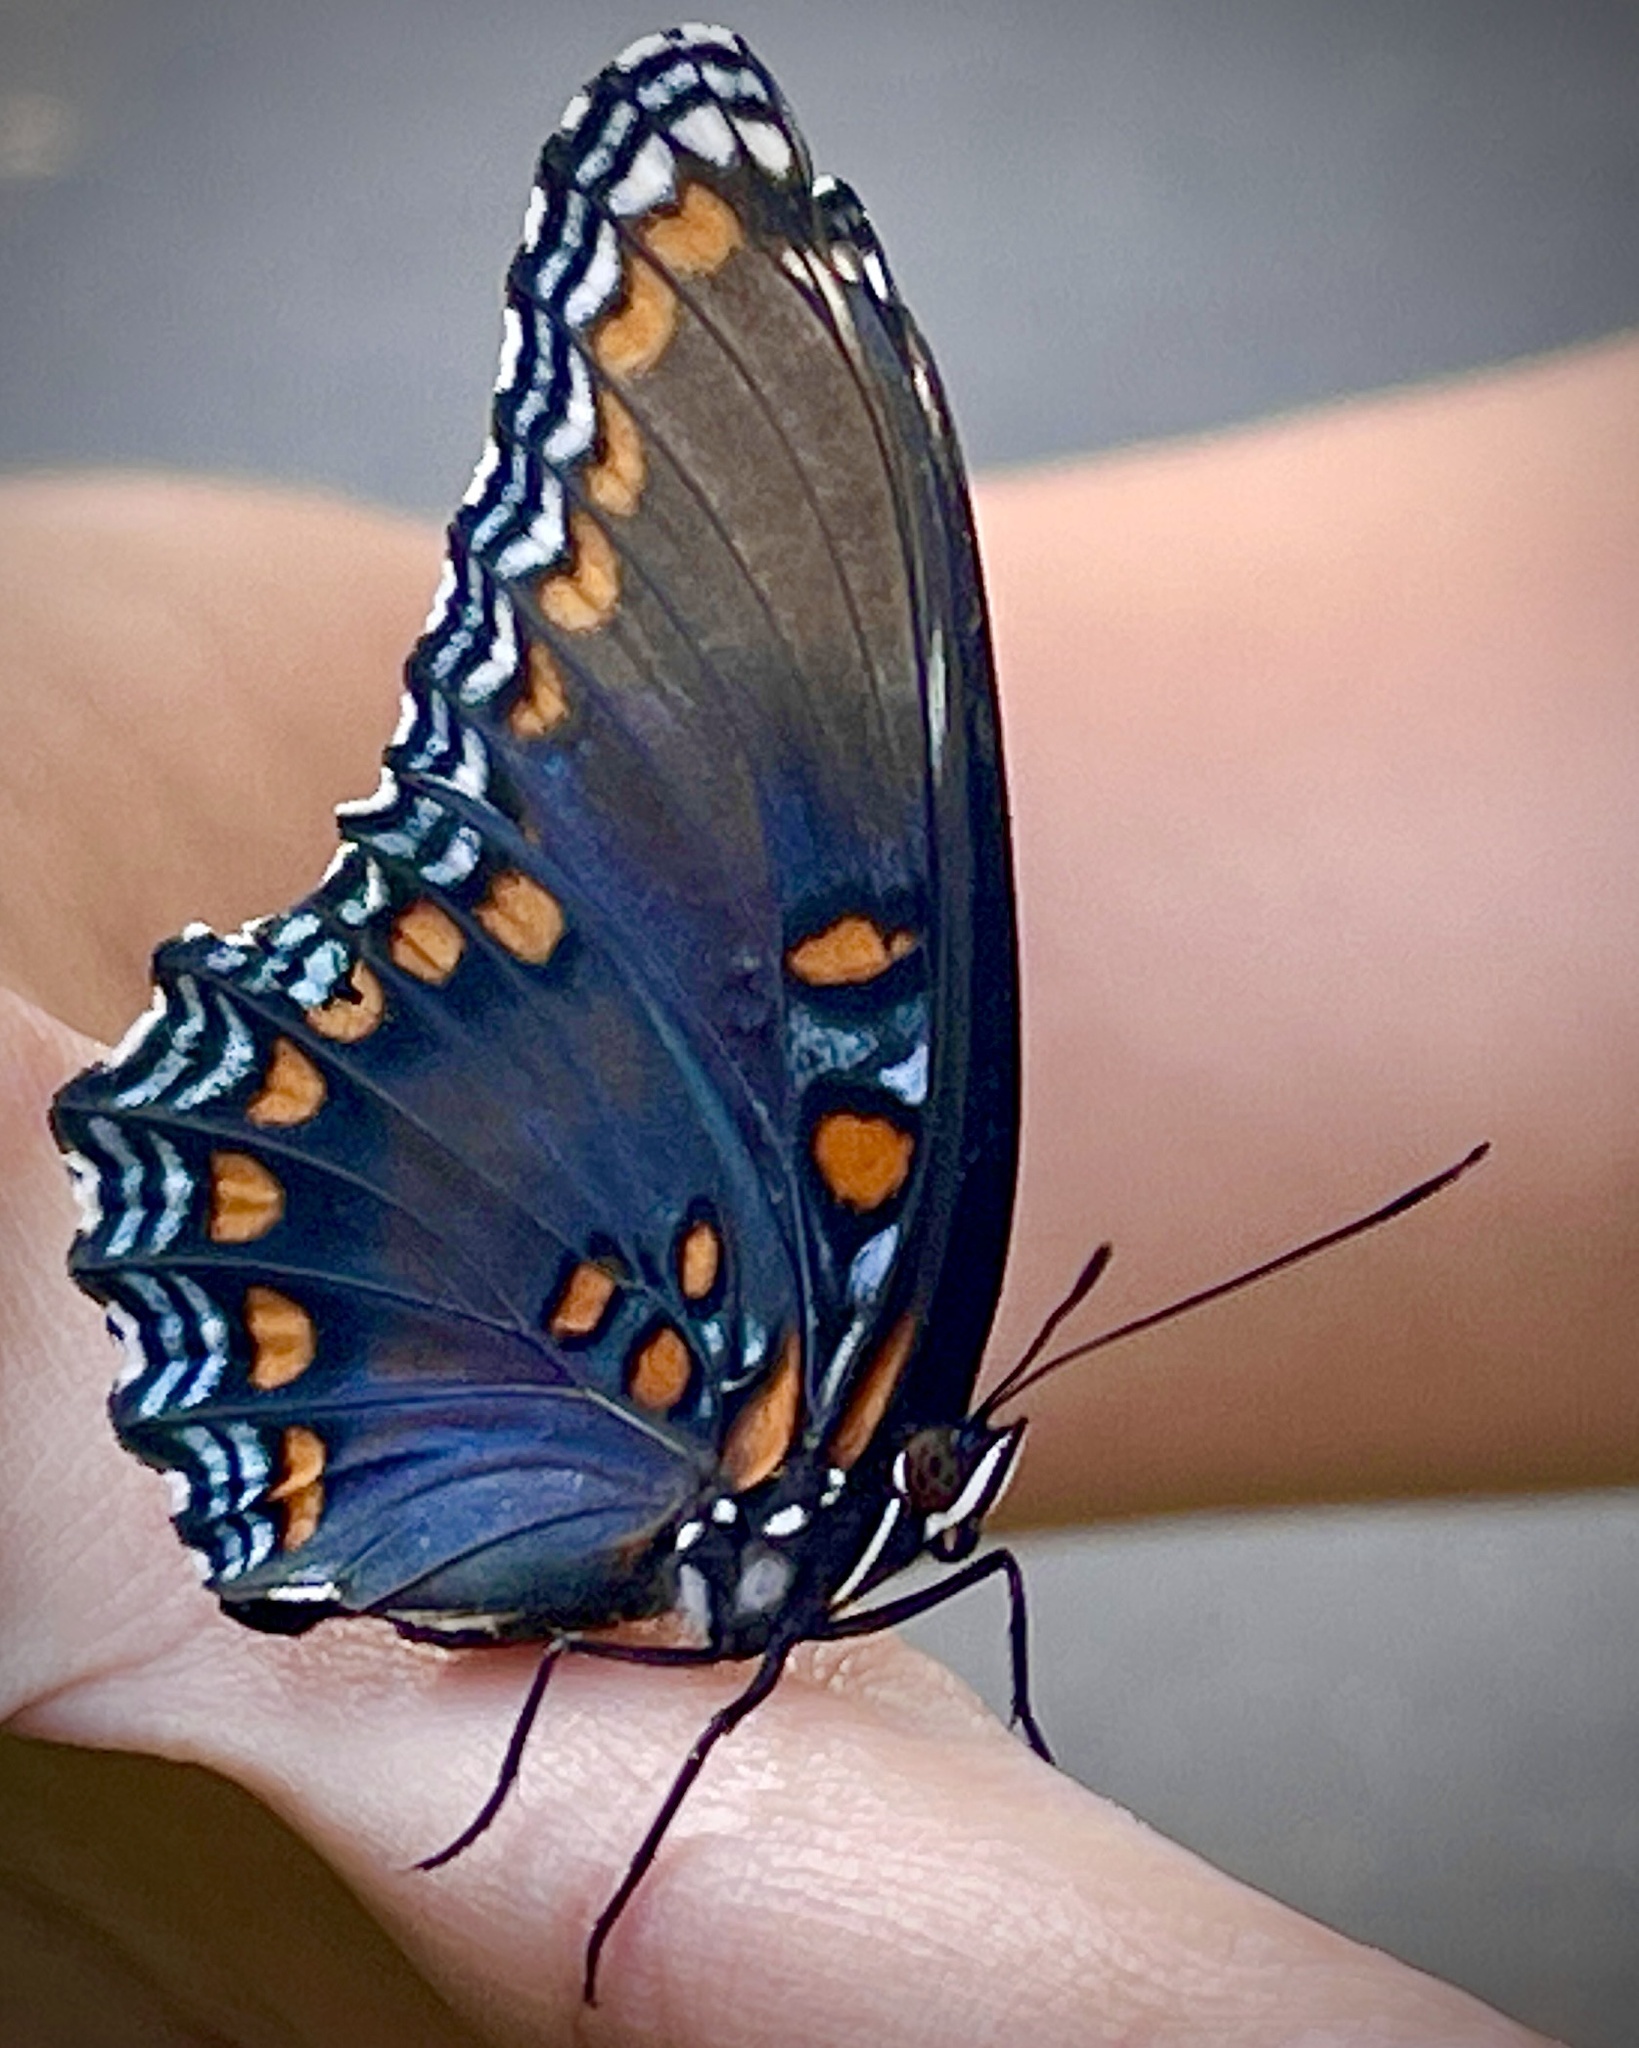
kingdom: Animalia
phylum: Arthropoda
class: Insecta
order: Lepidoptera
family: Nymphalidae
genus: Limenitis
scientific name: Limenitis astyanax
